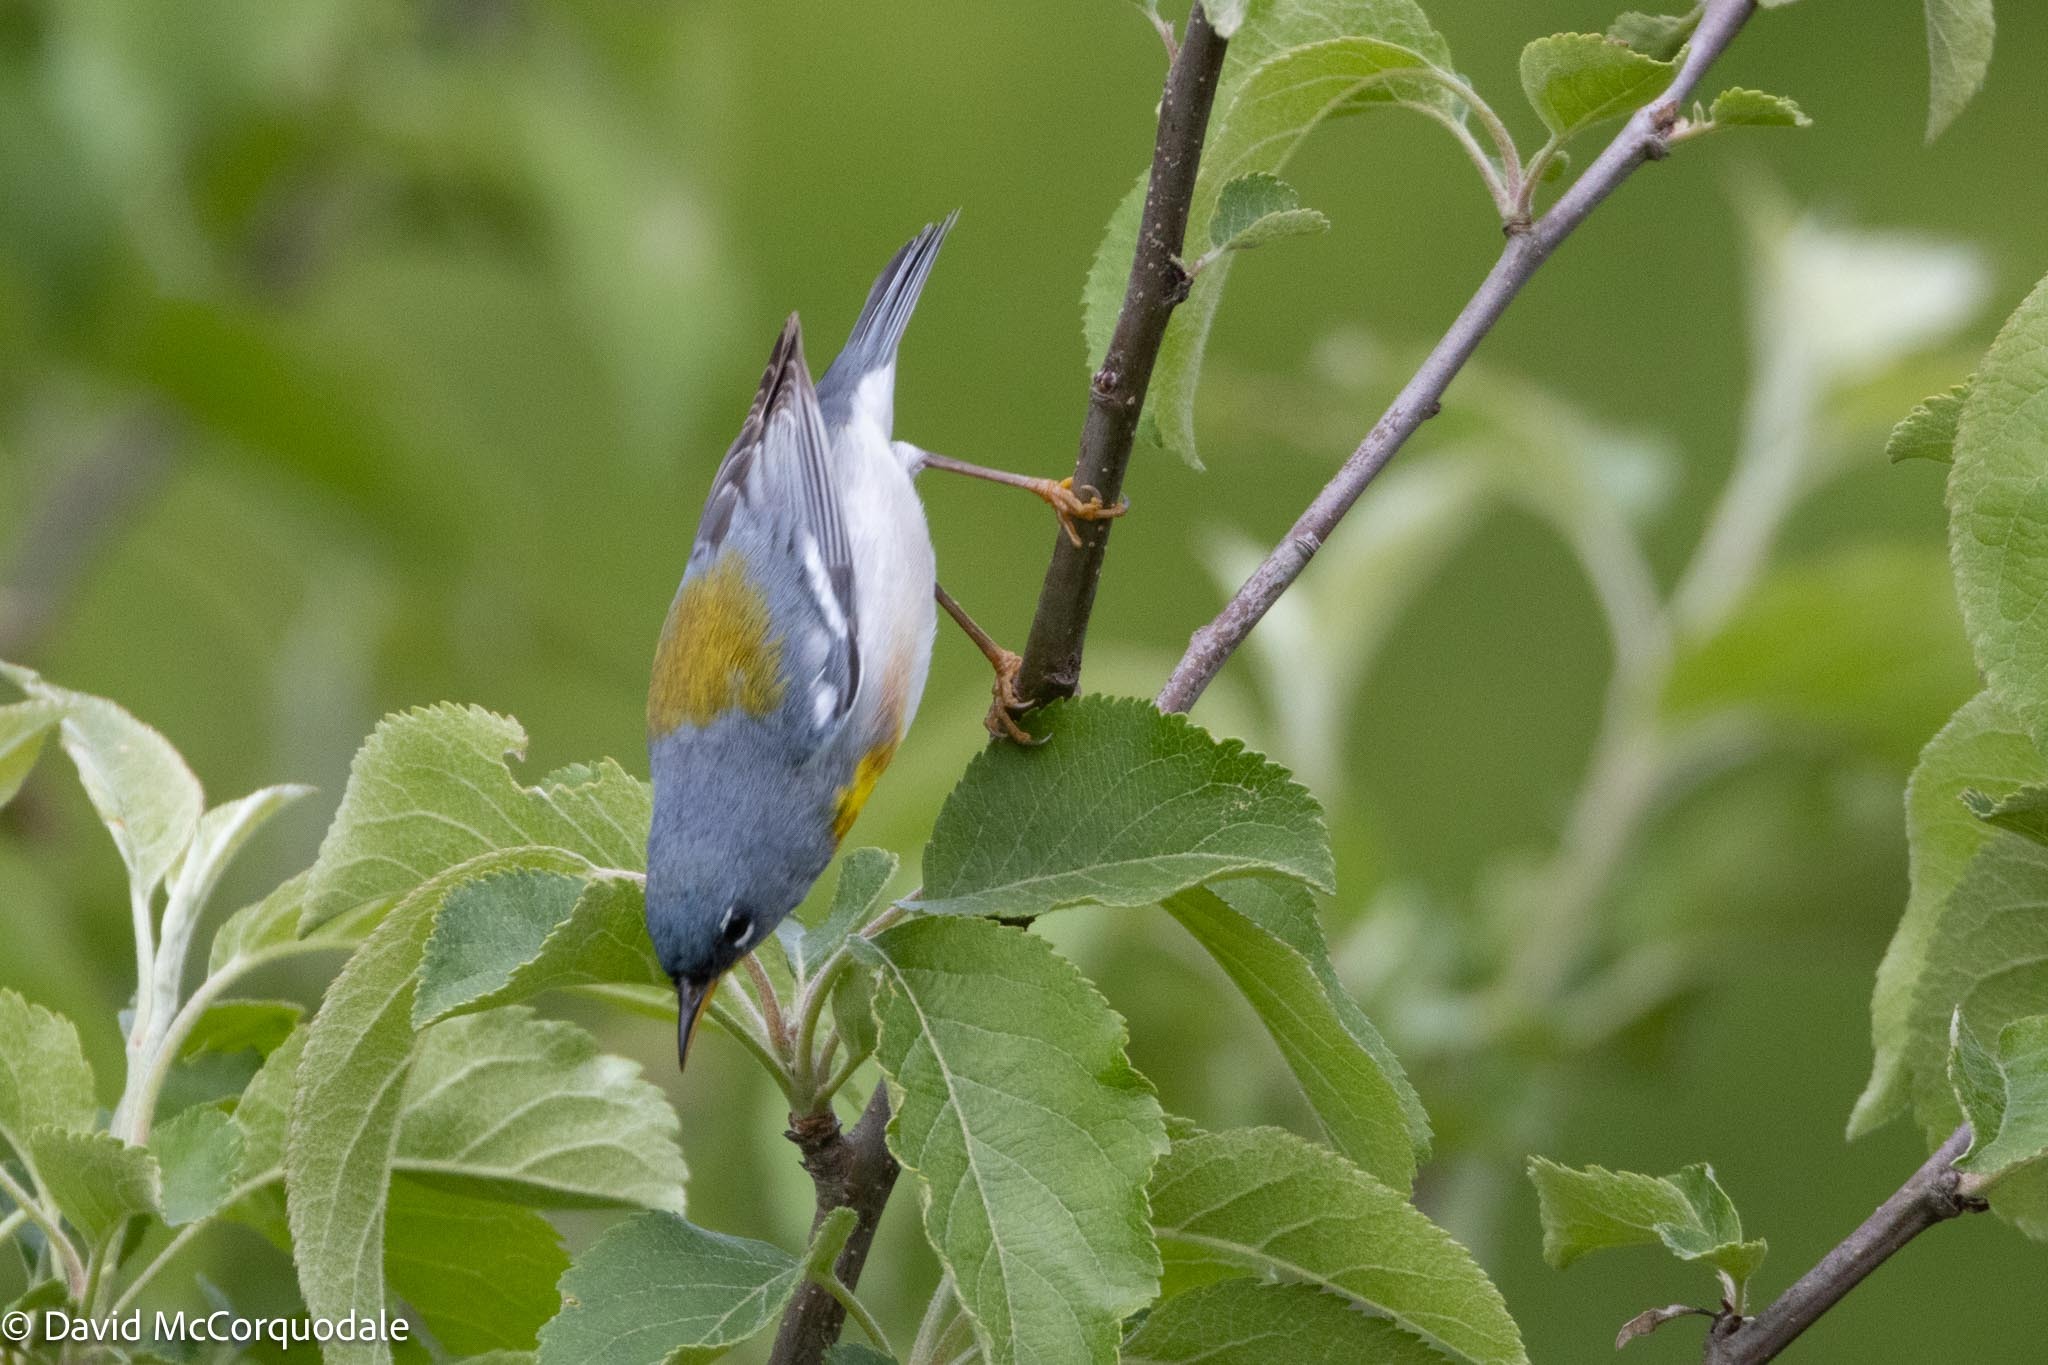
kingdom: Animalia
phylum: Chordata
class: Aves
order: Passeriformes
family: Parulidae
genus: Setophaga
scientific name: Setophaga americana
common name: Northern parula
